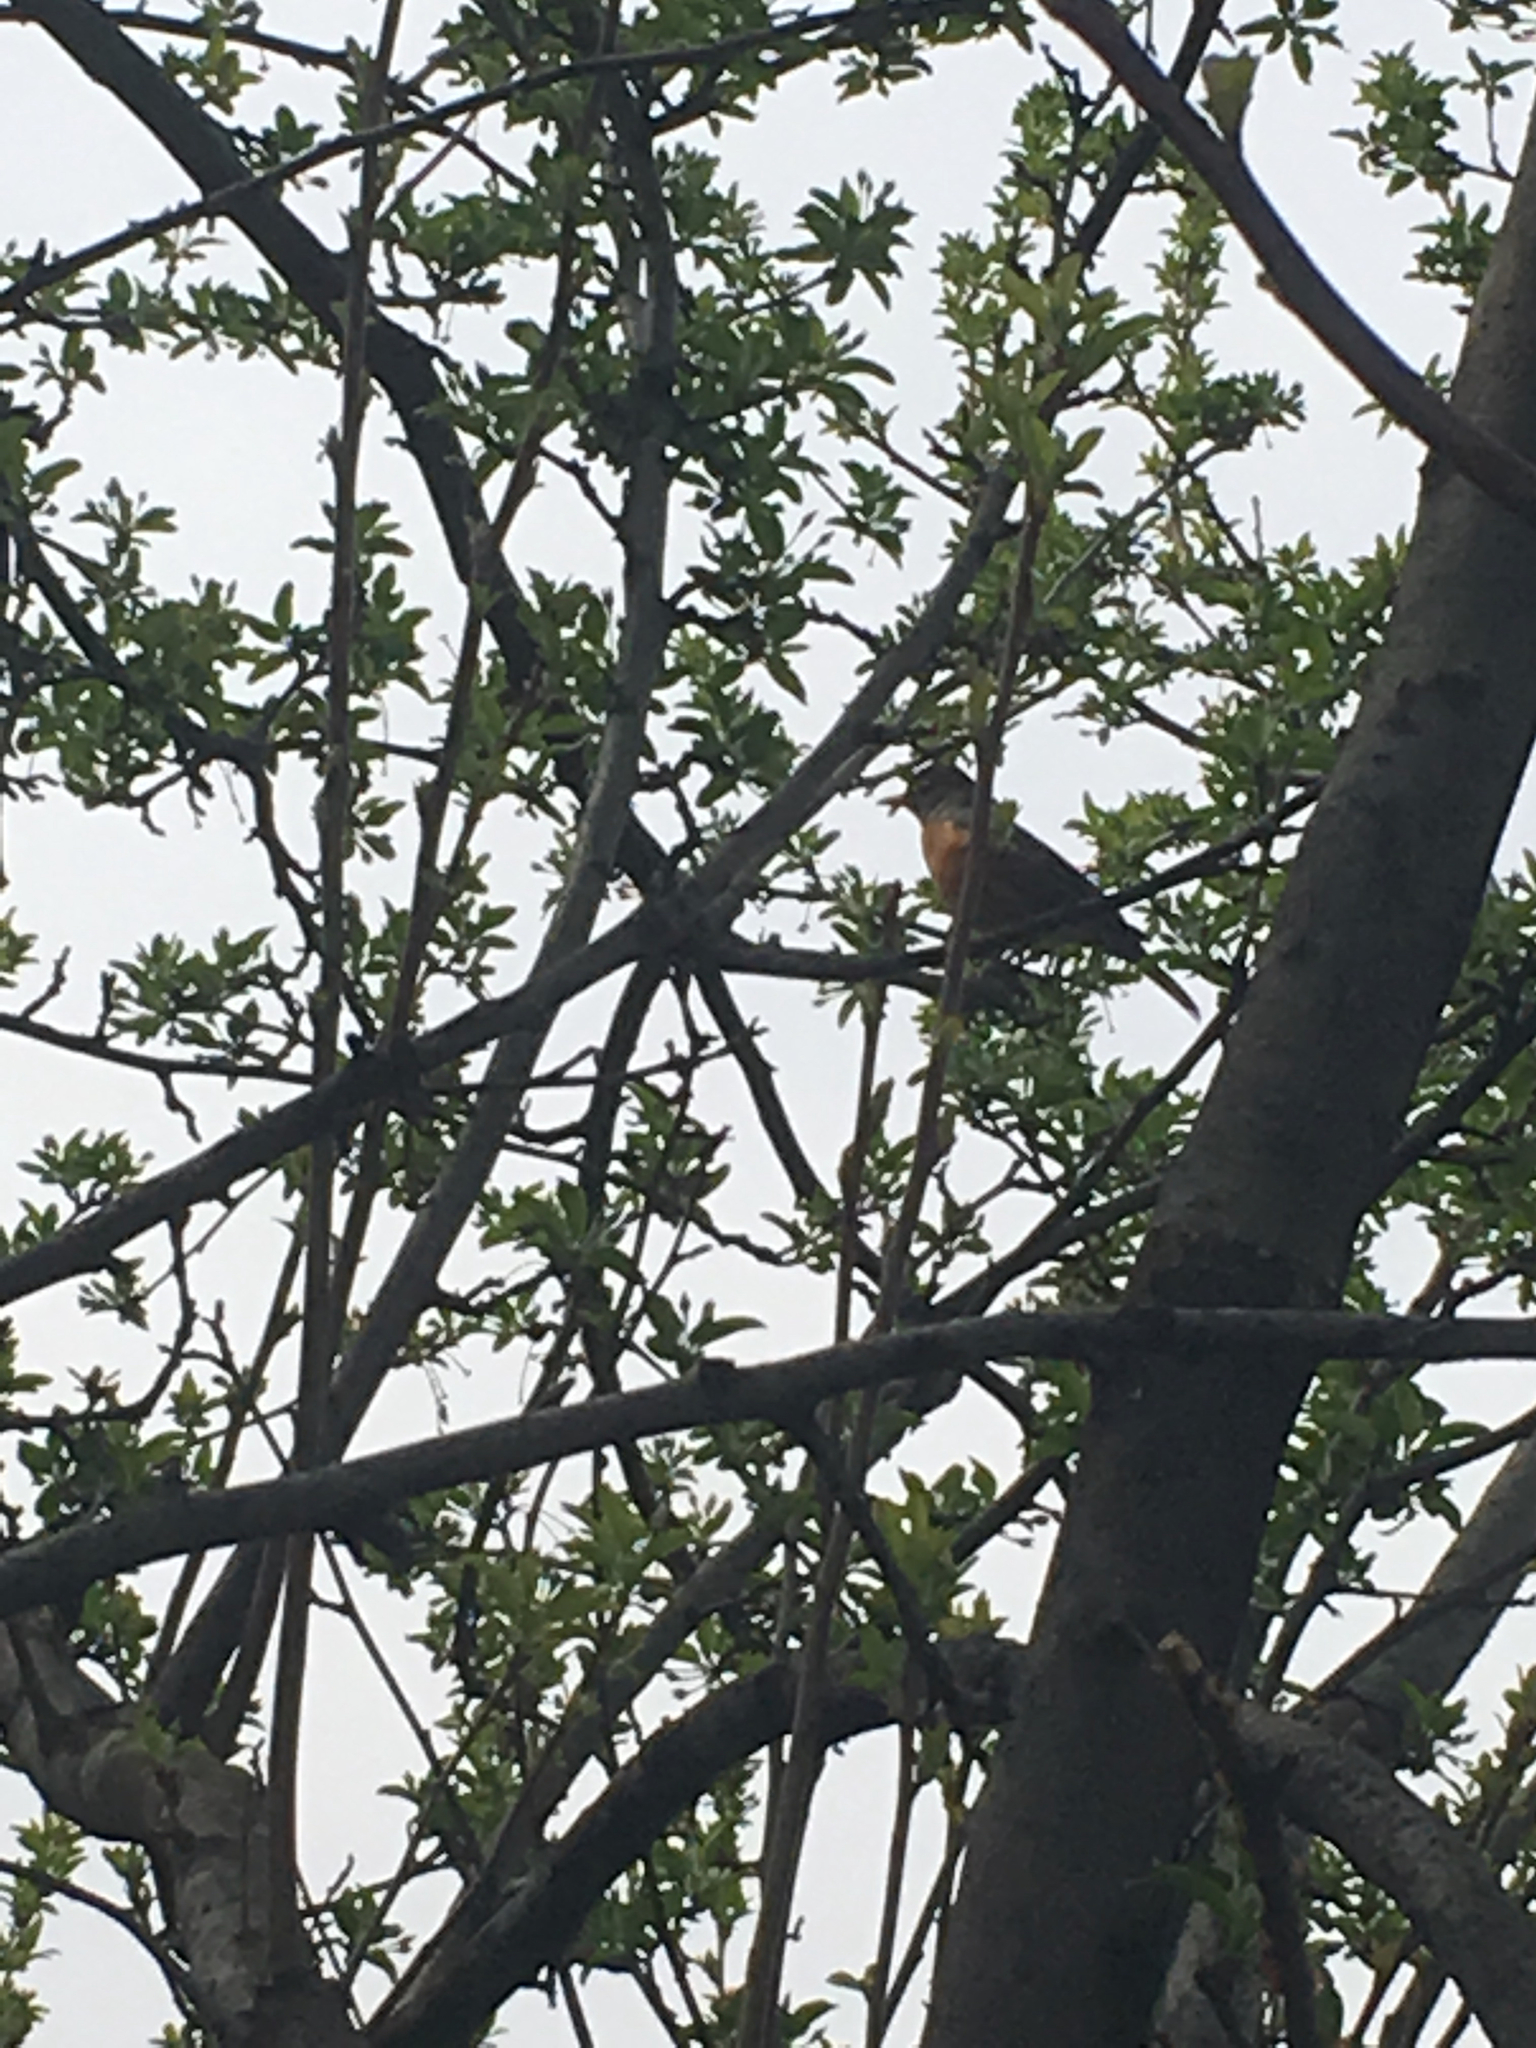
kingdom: Animalia
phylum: Chordata
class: Aves
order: Passeriformes
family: Turdidae
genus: Turdus
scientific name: Turdus migratorius
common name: American robin
